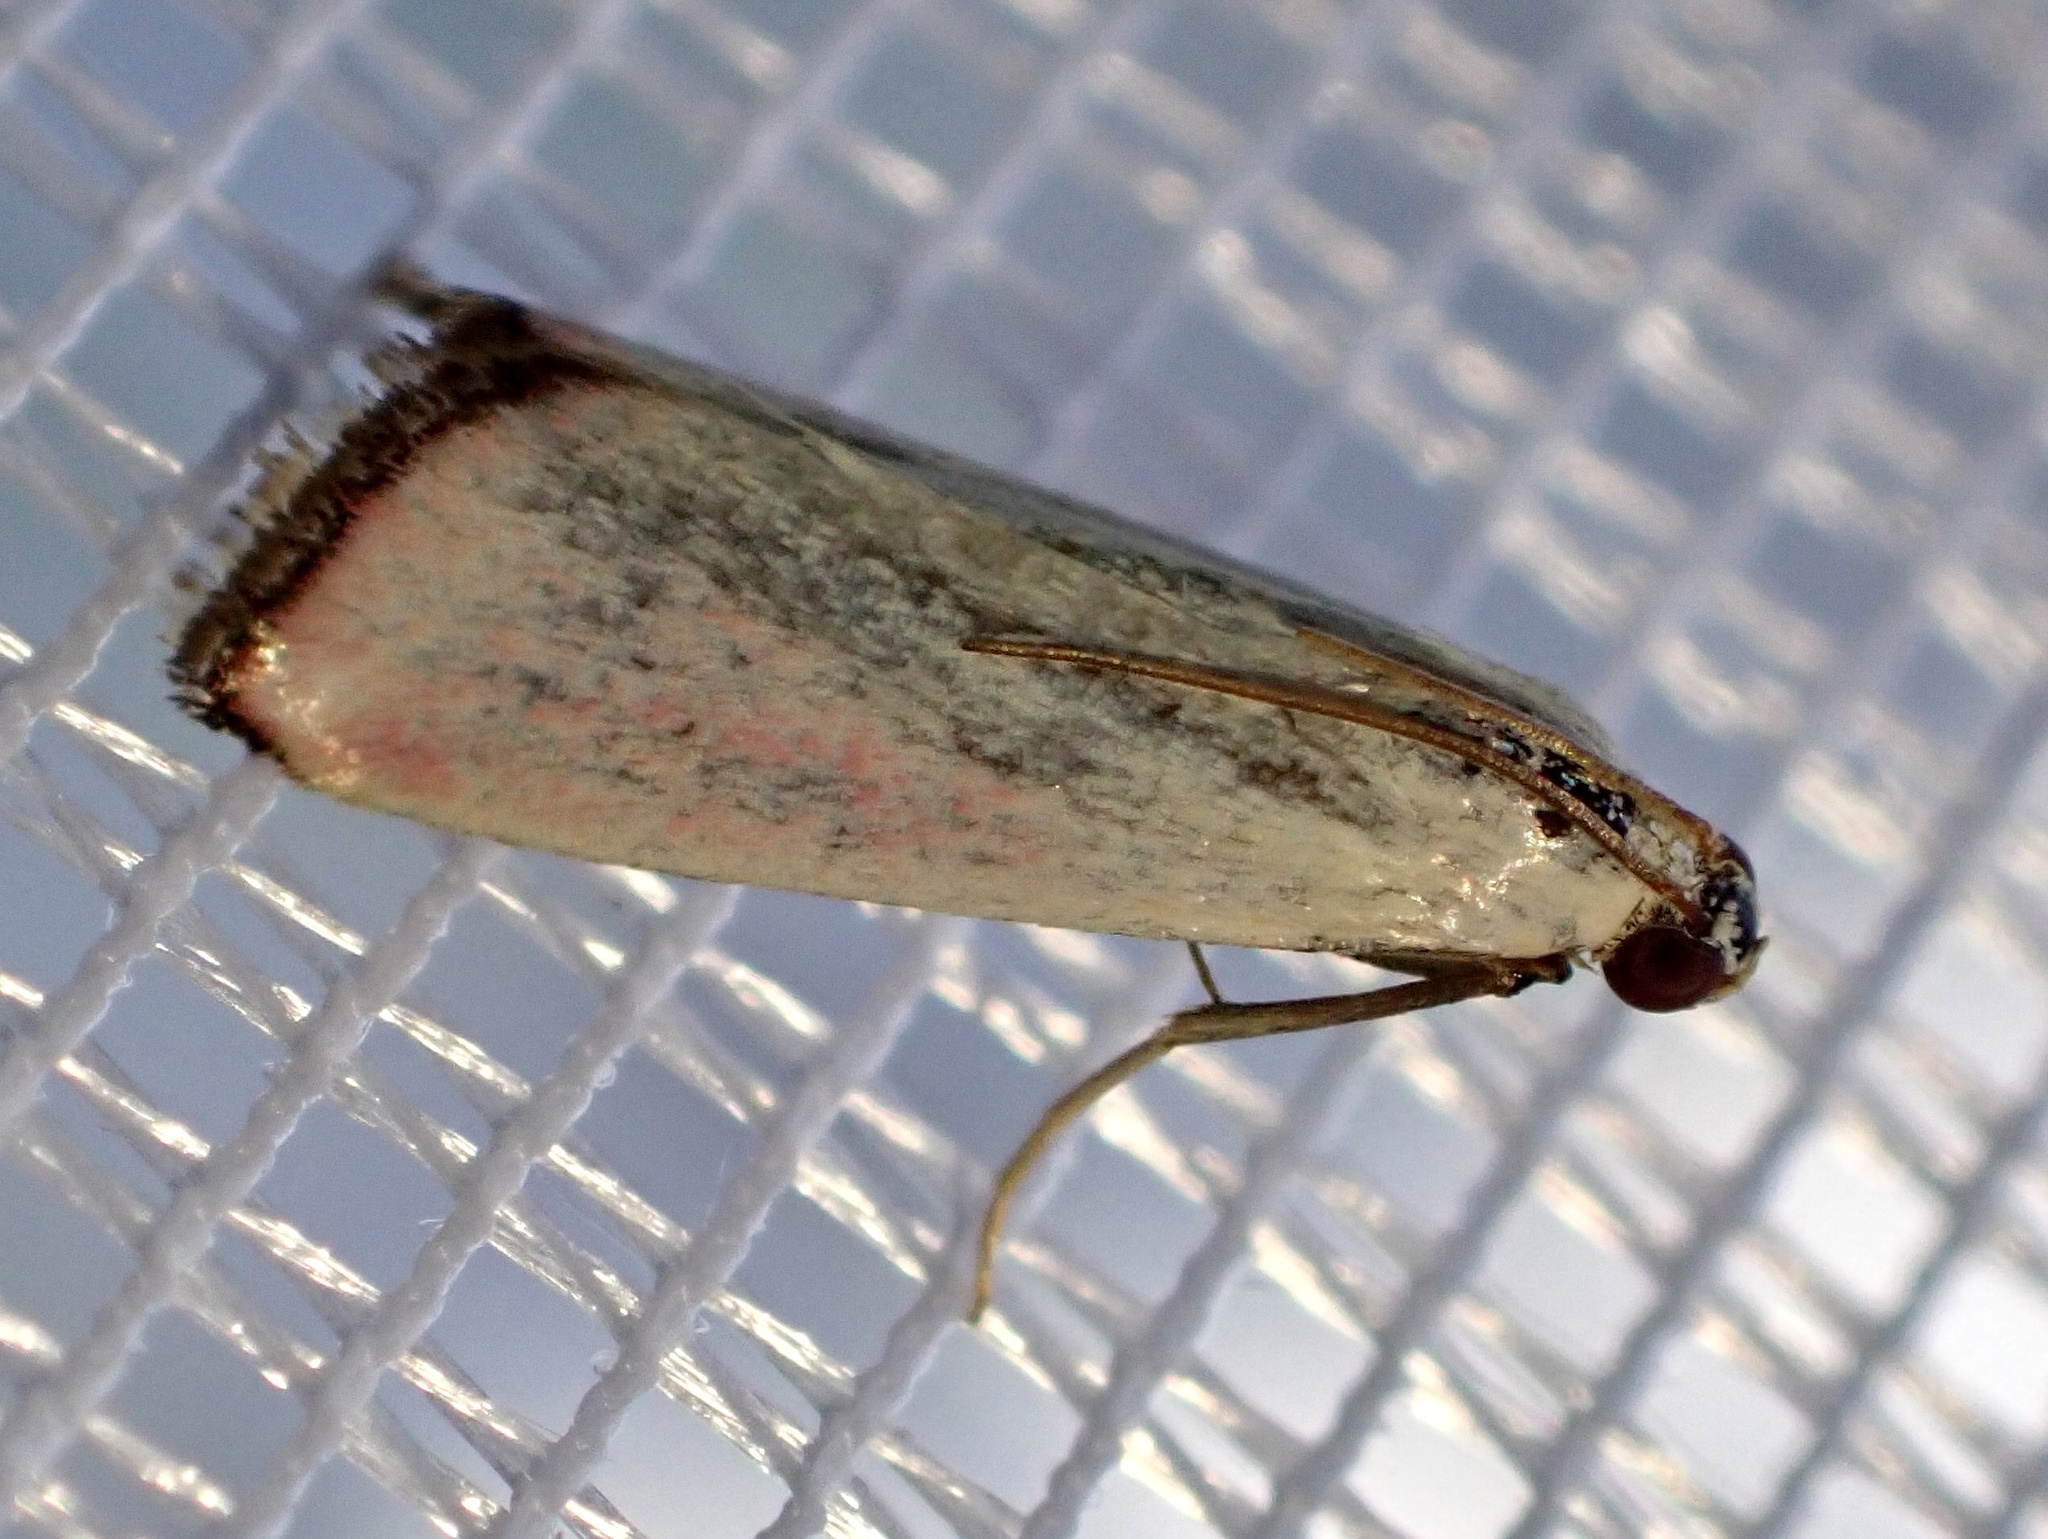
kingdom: Animalia
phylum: Arthropoda
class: Insecta
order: Lepidoptera
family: Pyralidae
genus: Eurhodope
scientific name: Eurhodope rosella
